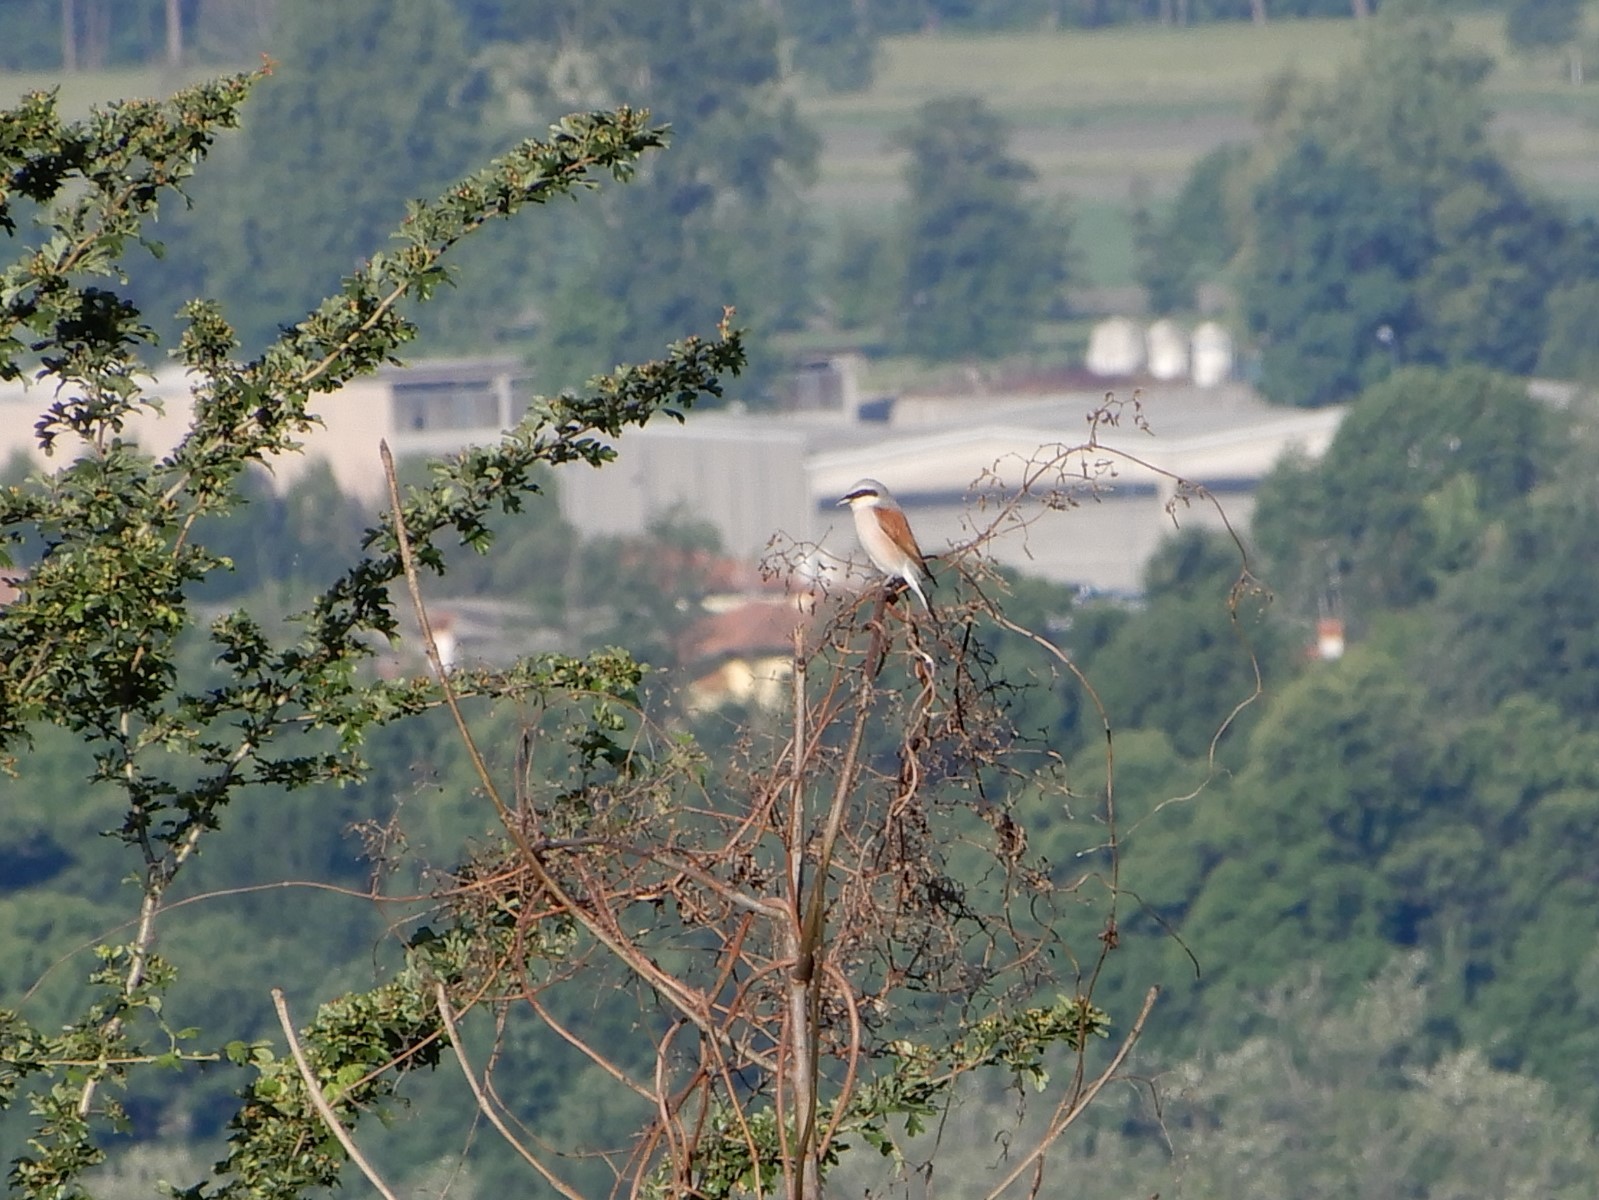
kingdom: Animalia
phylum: Chordata
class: Aves
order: Passeriformes
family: Laniidae
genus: Lanius
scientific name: Lanius collurio
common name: Red-backed shrike
